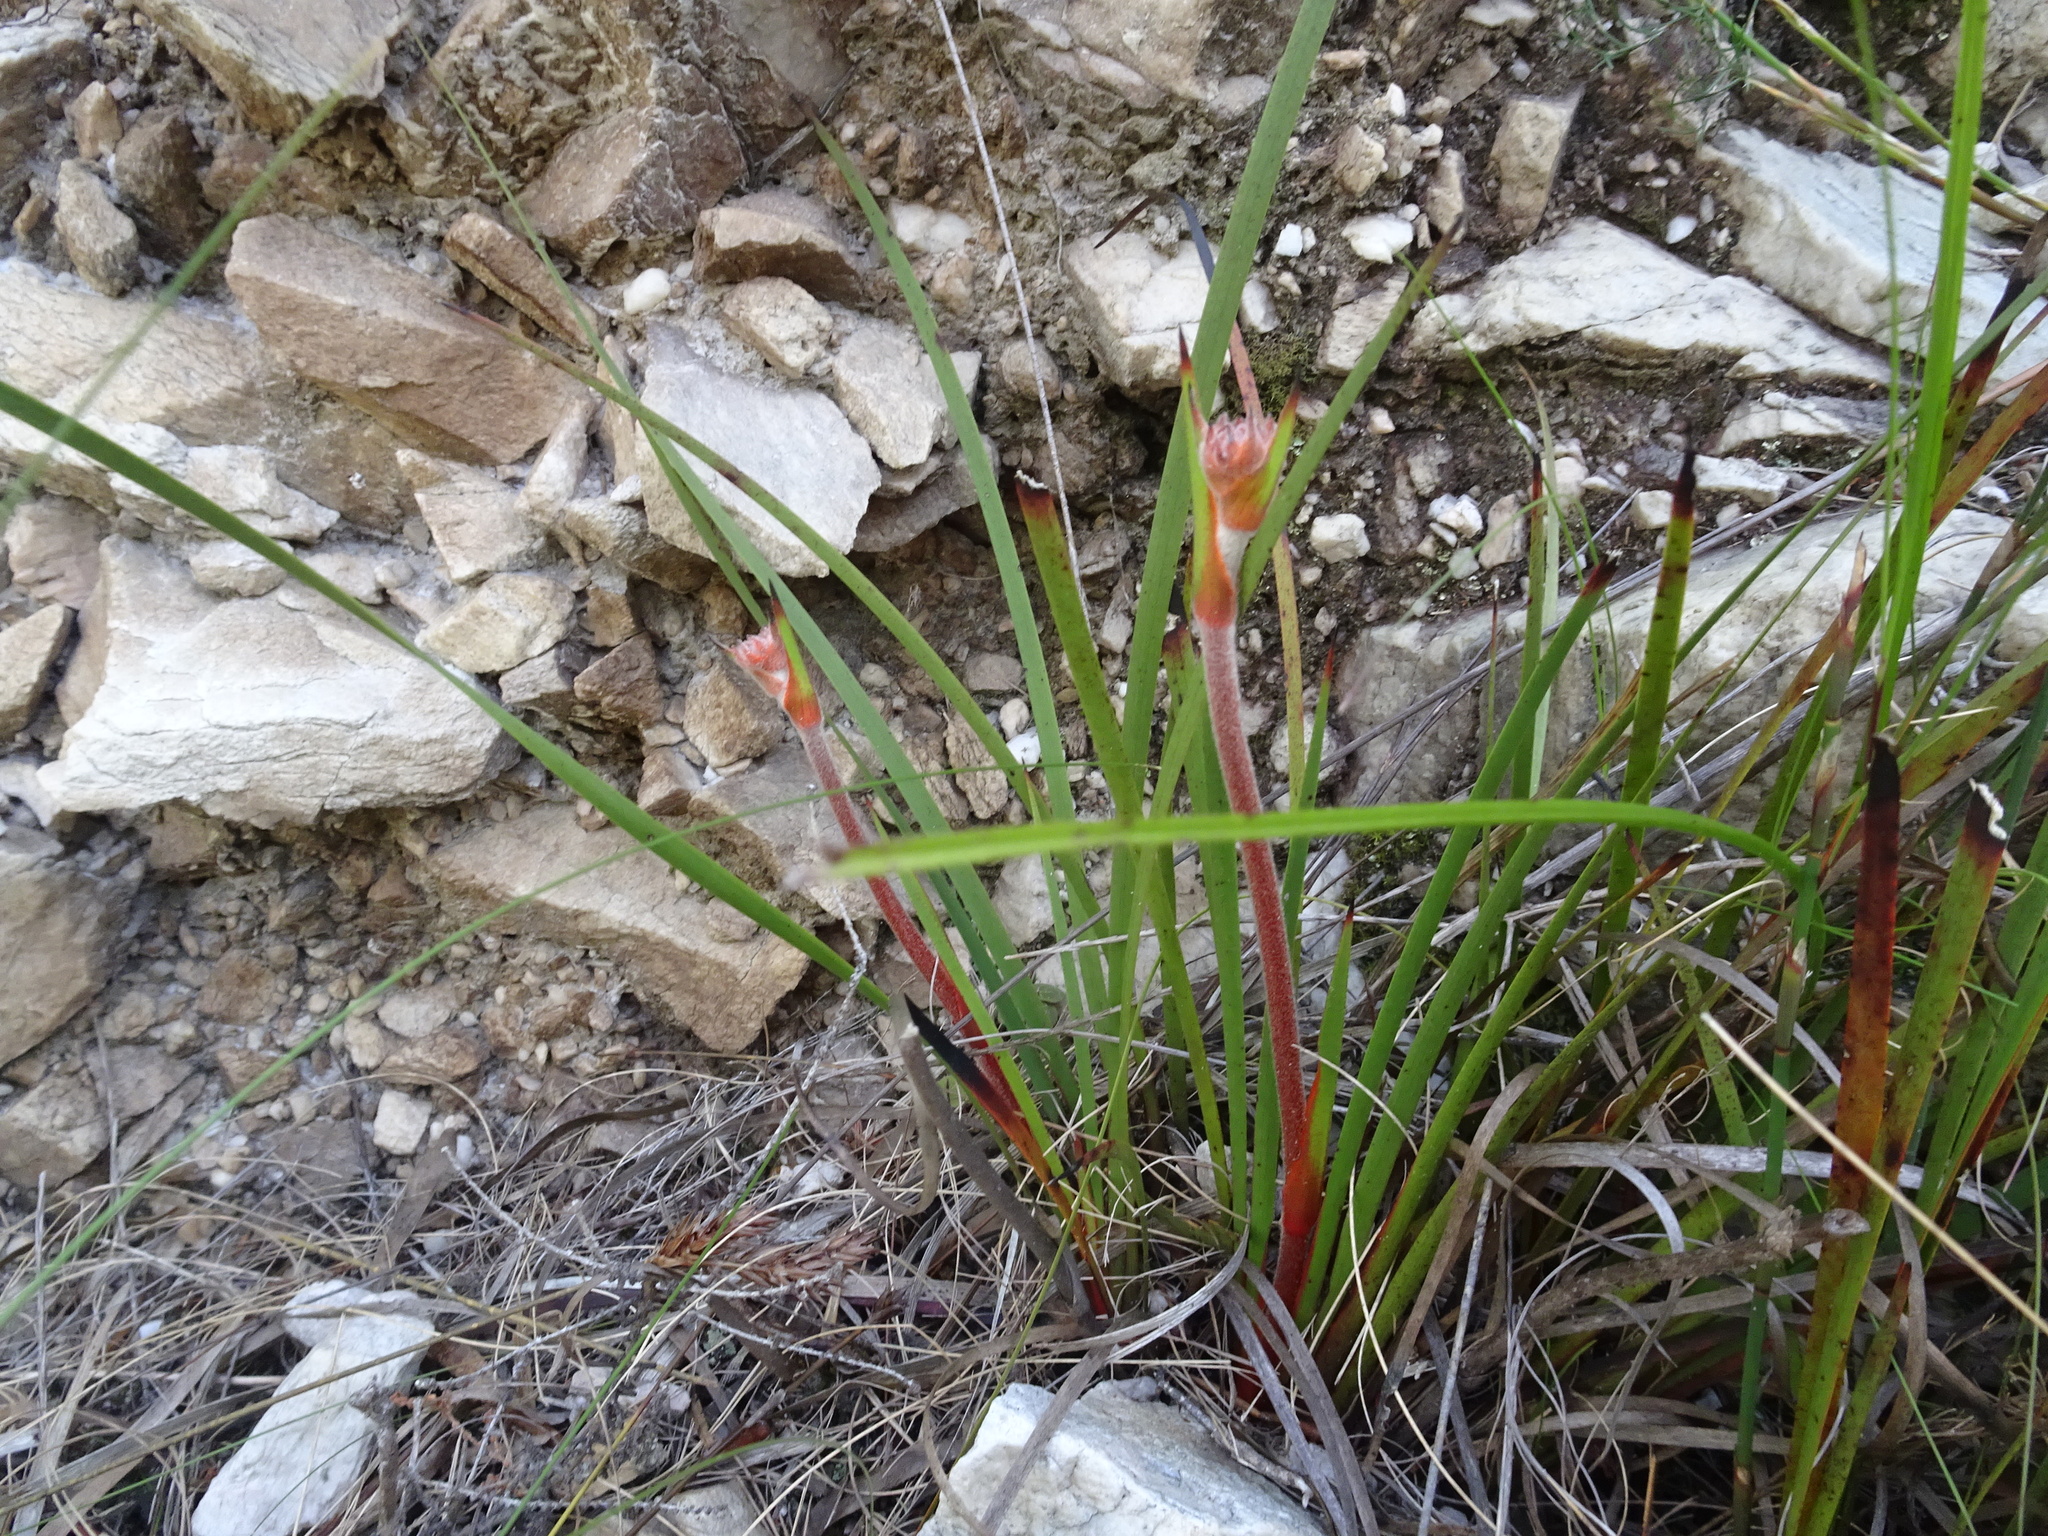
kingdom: Plantae
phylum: Tracheophyta
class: Liliopsida
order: Commelinales
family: Haemodoraceae
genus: Dilatris
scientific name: Dilatris pillansii
